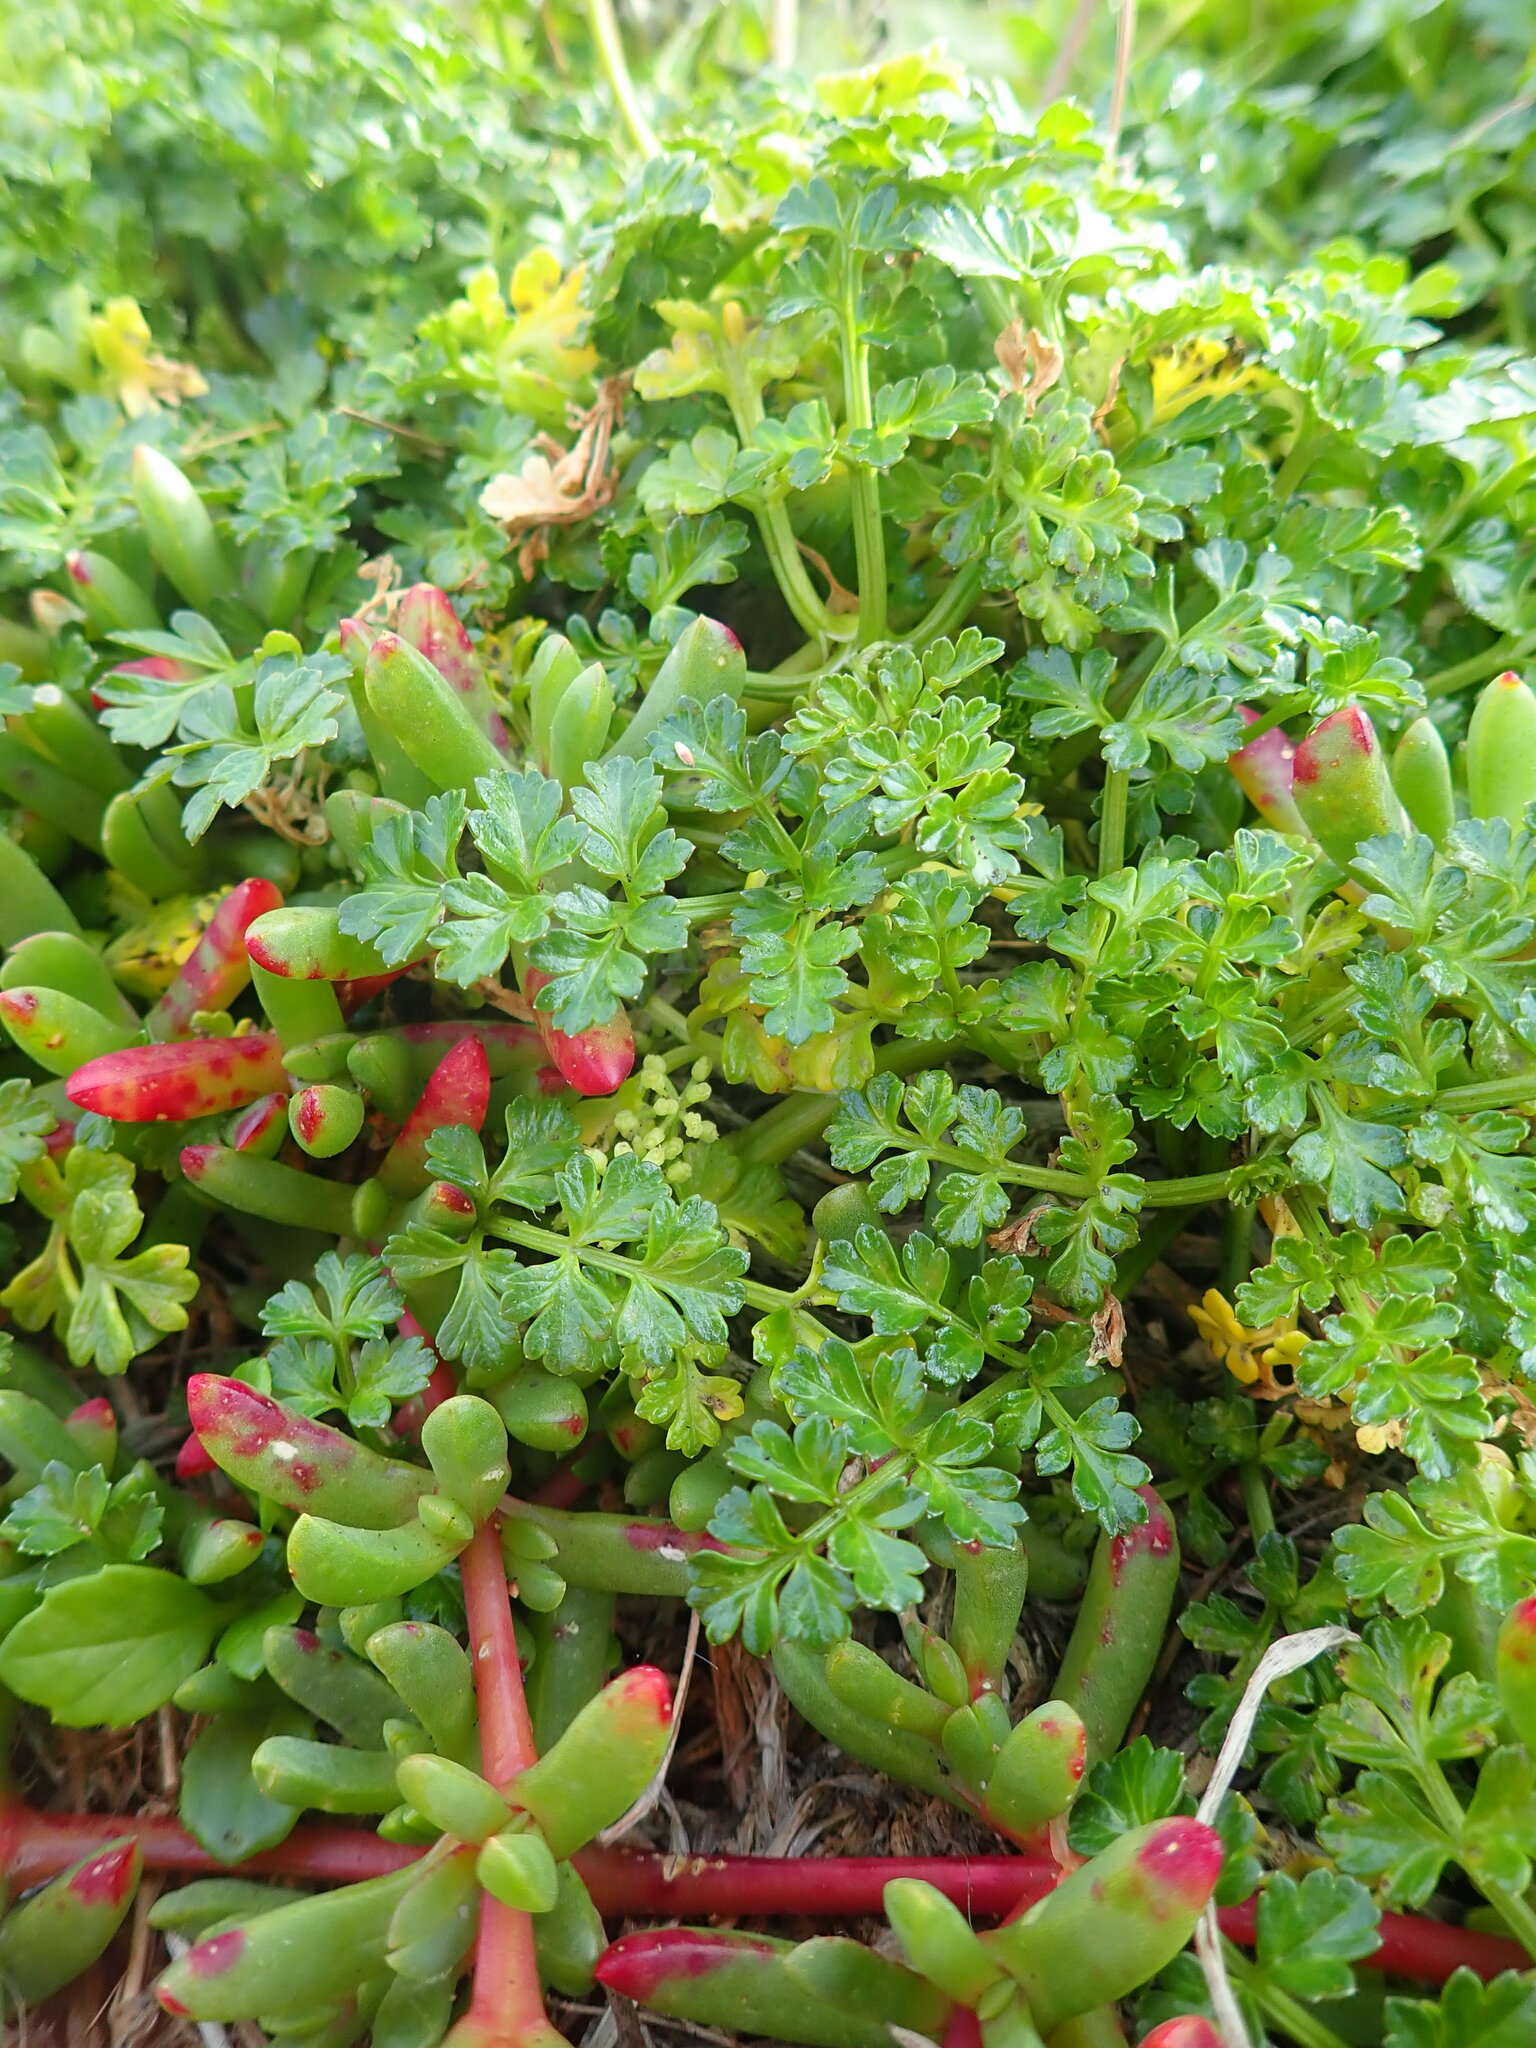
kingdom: Plantae
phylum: Tracheophyta
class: Magnoliopsida
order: Apiales
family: Apiaceae
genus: Apium
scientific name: Apium prostratum
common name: Prostrate marshwort
